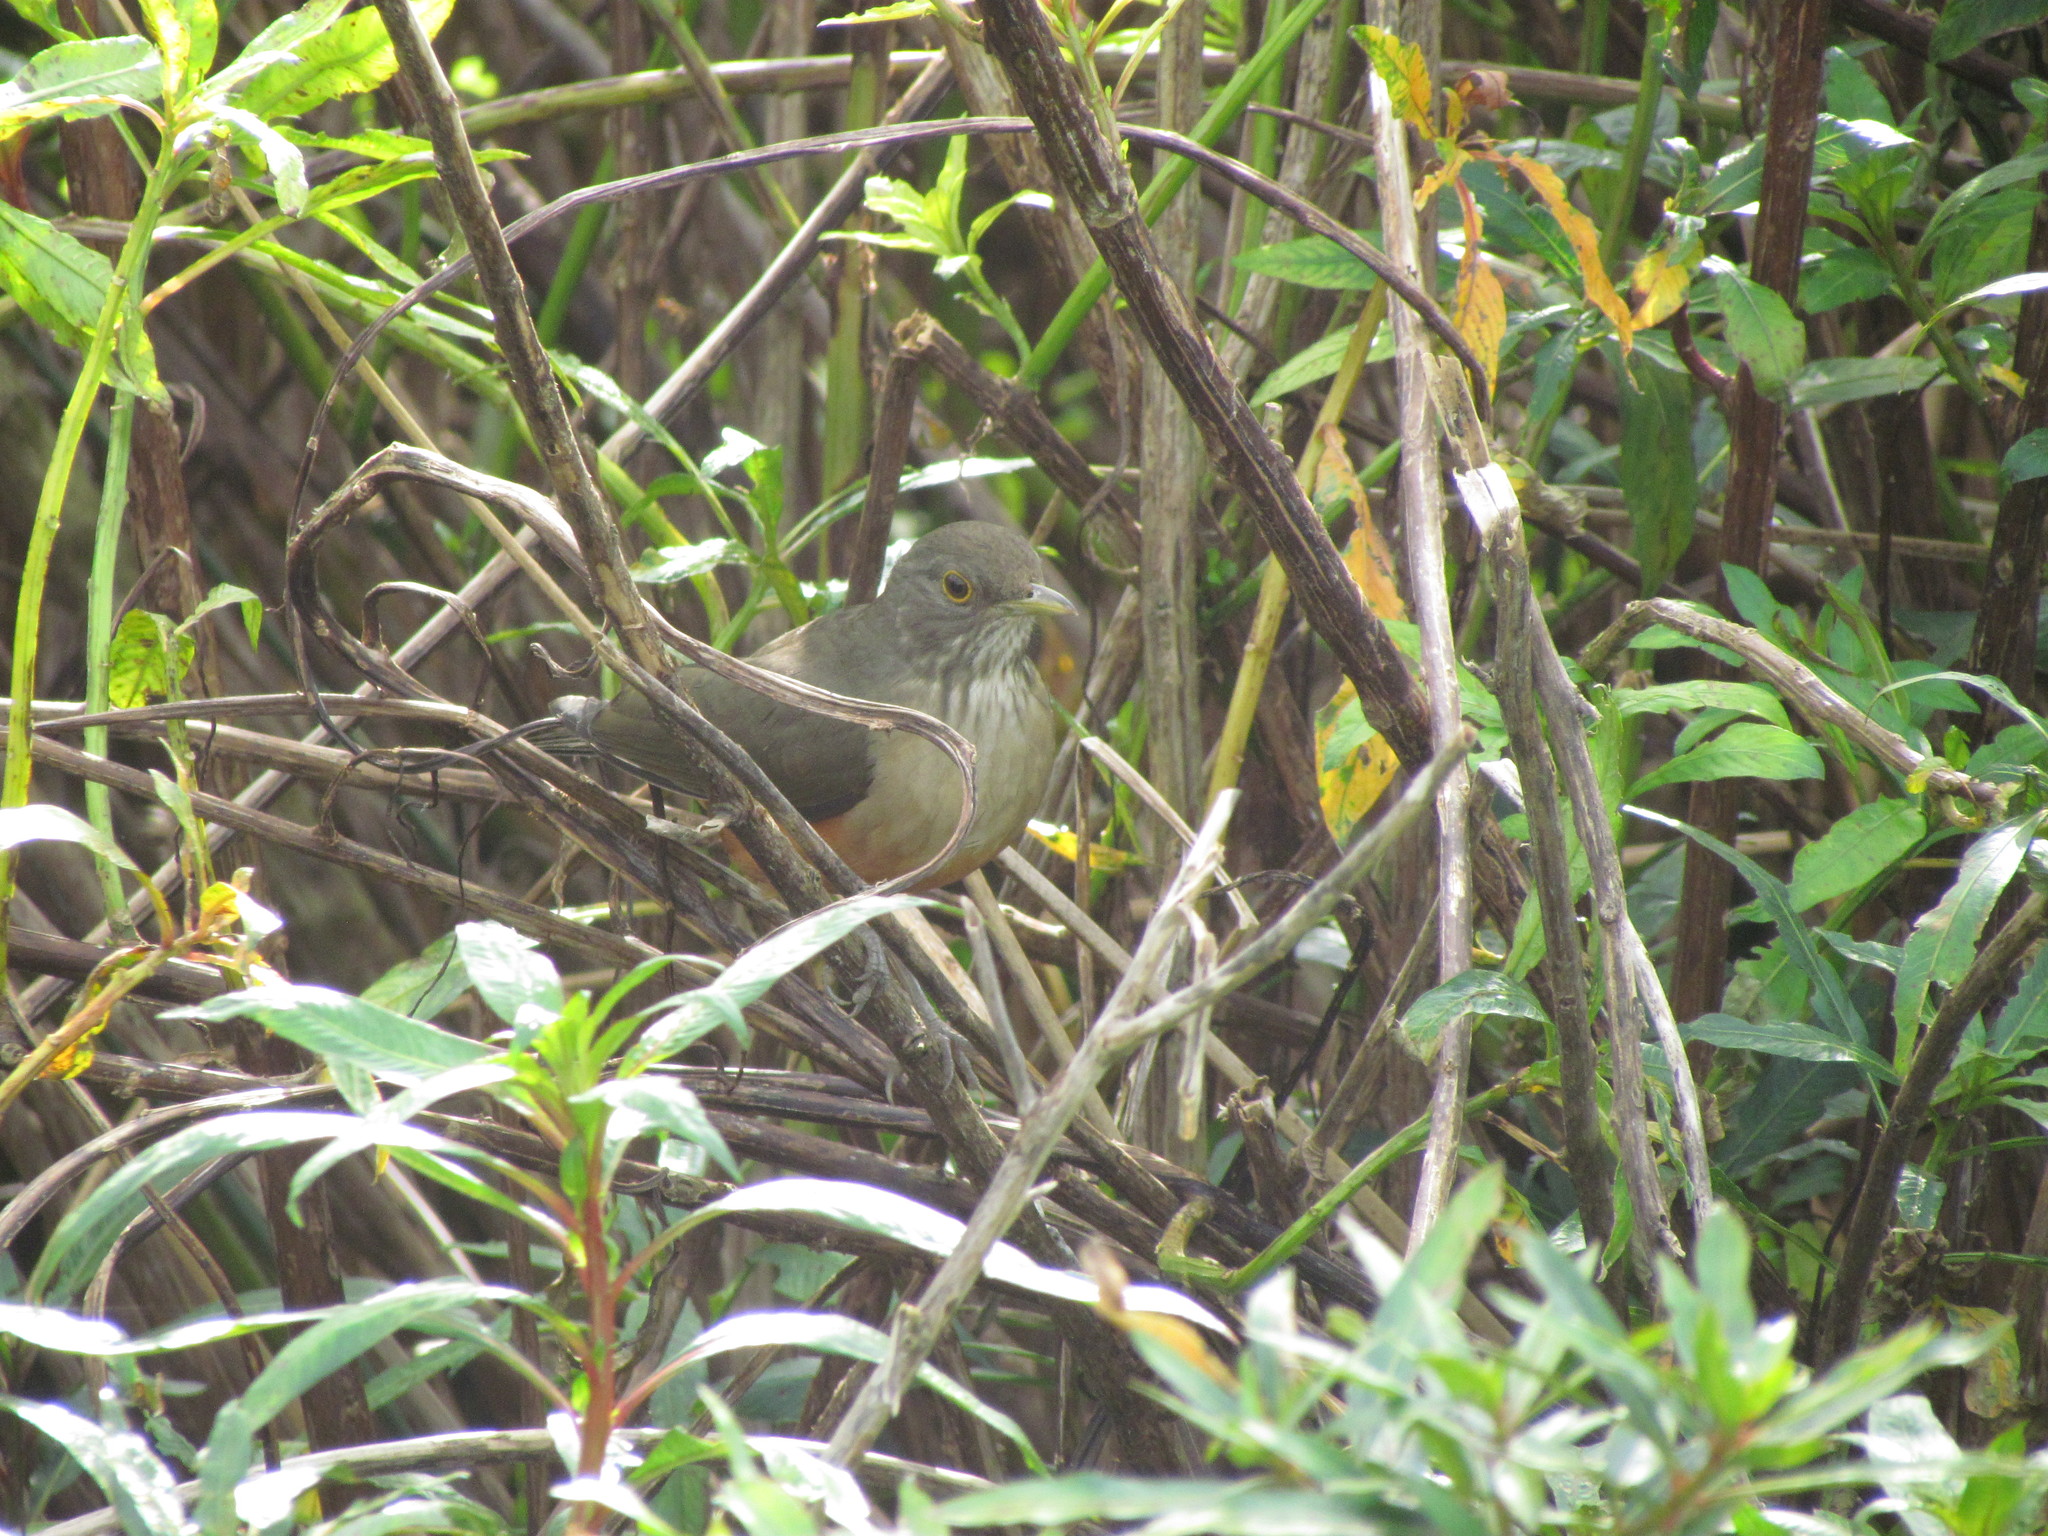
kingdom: Animalia
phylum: Chordata
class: Aves
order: Passeriformes
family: Turdidae
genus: Turdus
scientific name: Turdus rufiventris
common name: Rufous-bellied thrush
